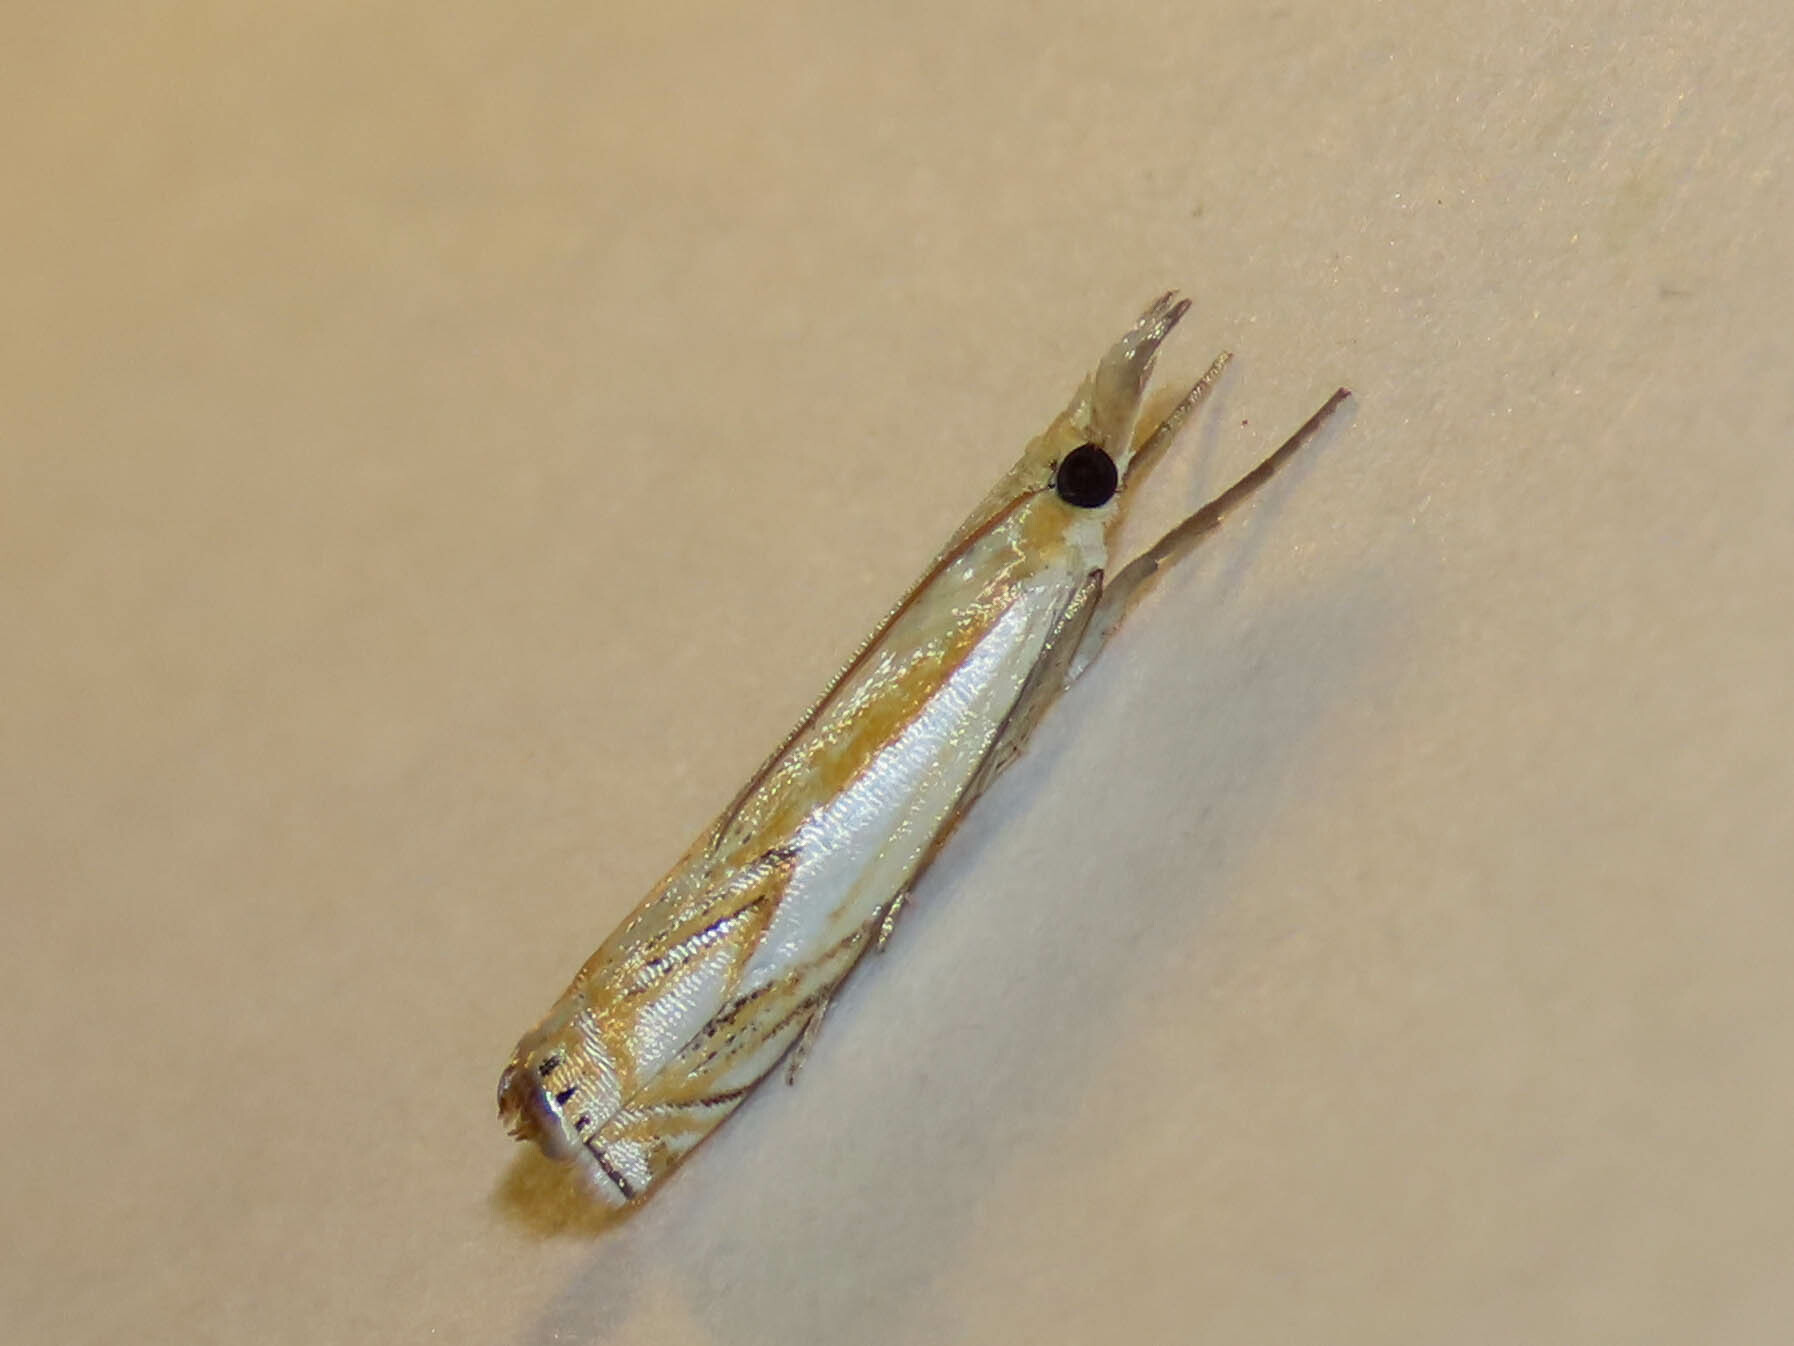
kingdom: Animalia
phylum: Arthropoda
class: Insecta
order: Lepidoptera
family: Crambidae
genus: Crambus
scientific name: Crambus agitatellus
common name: Double-banded grass-veneer
